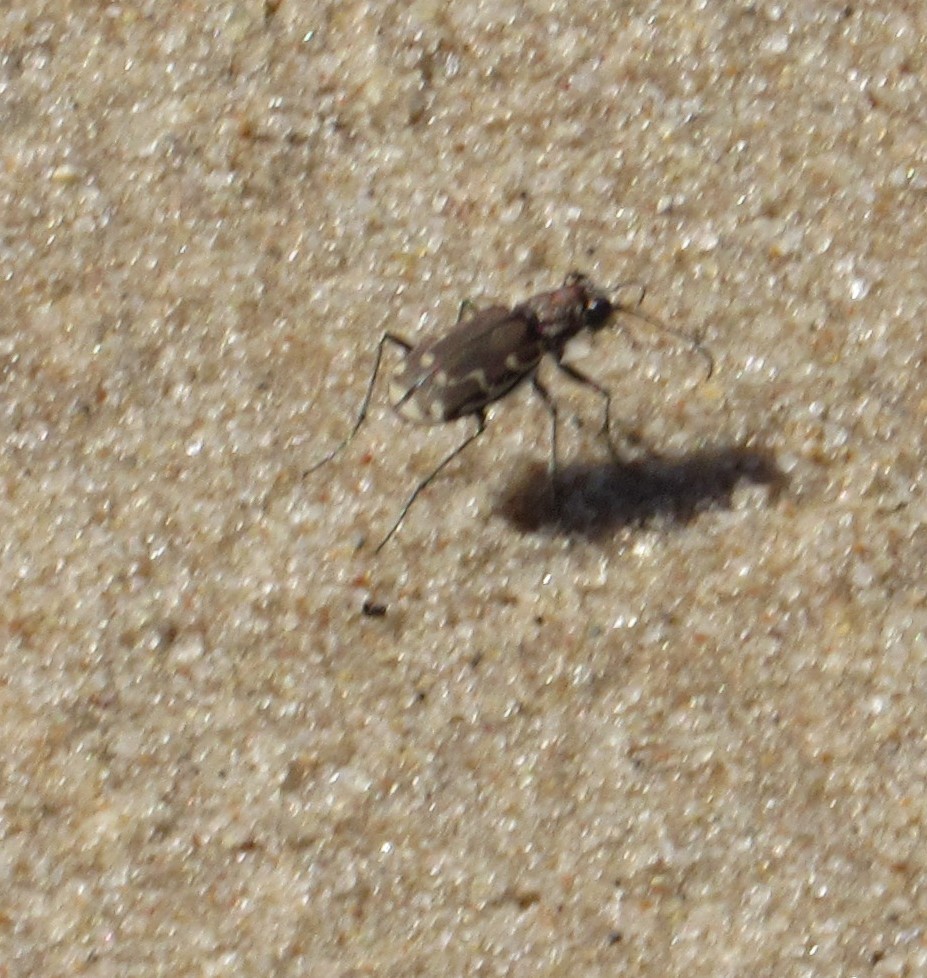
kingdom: Animalia
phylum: Arthropoda
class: Insecta
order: Coleoptera
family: Carabidae
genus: Cicindela
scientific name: Cicindela repanda
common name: Bronzed tiger beetle
